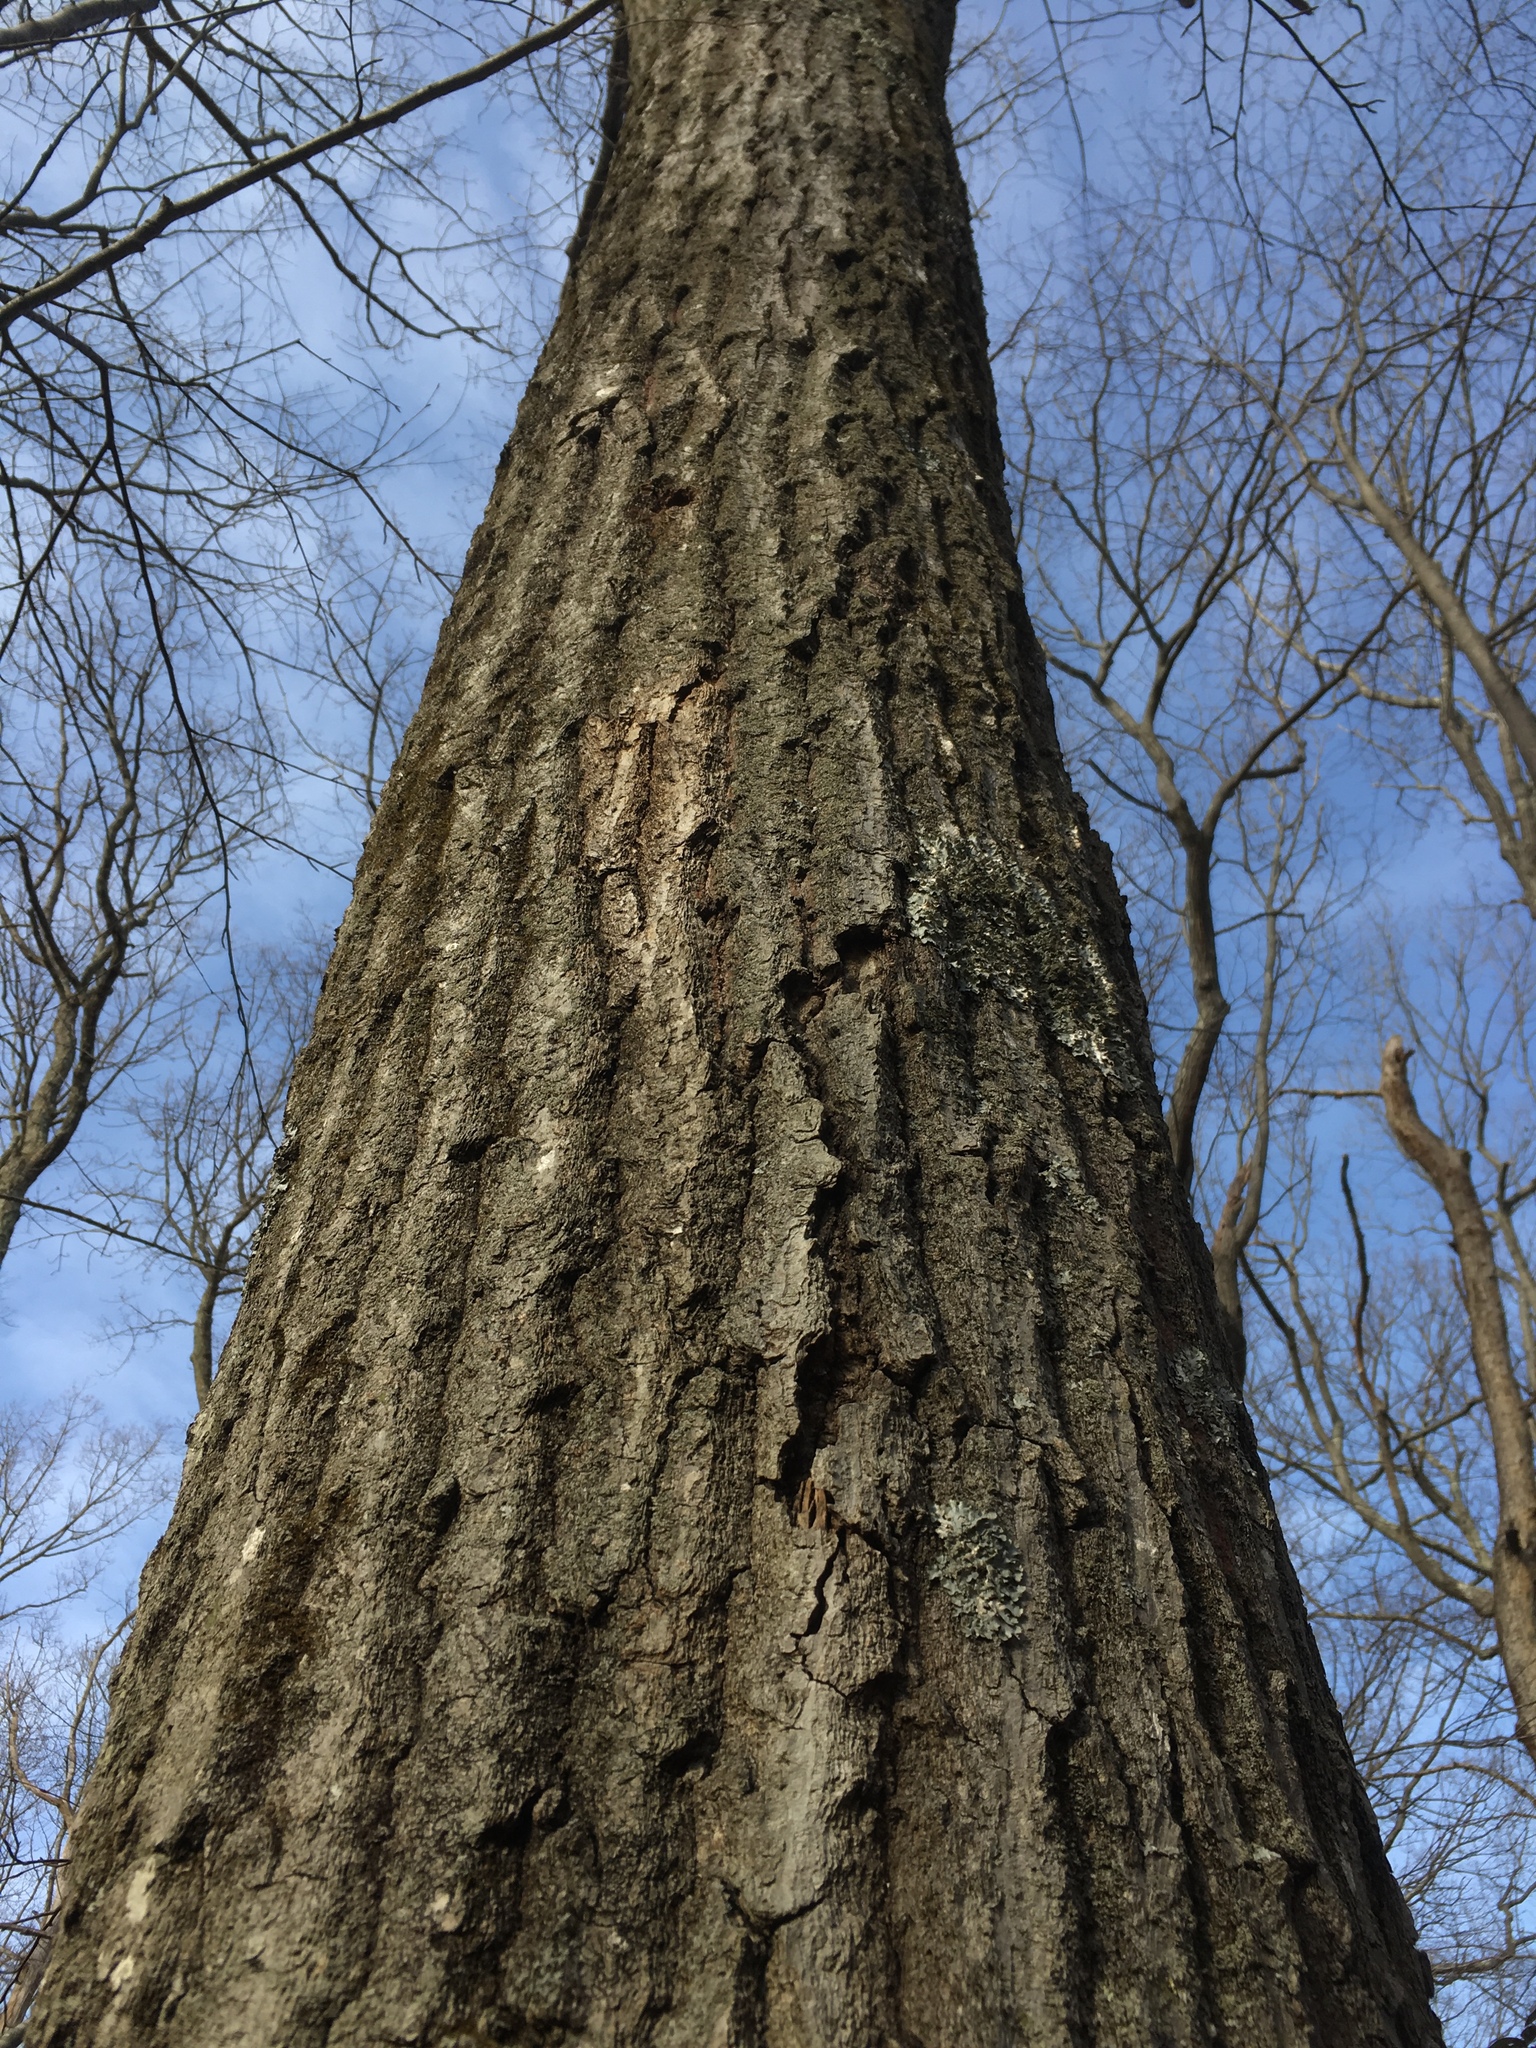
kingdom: Plantae
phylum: Tracheophyta
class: Magnoliopsida
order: Fagales
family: Fagaceae
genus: Quercus
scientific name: Quercus rubra
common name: Red oak
